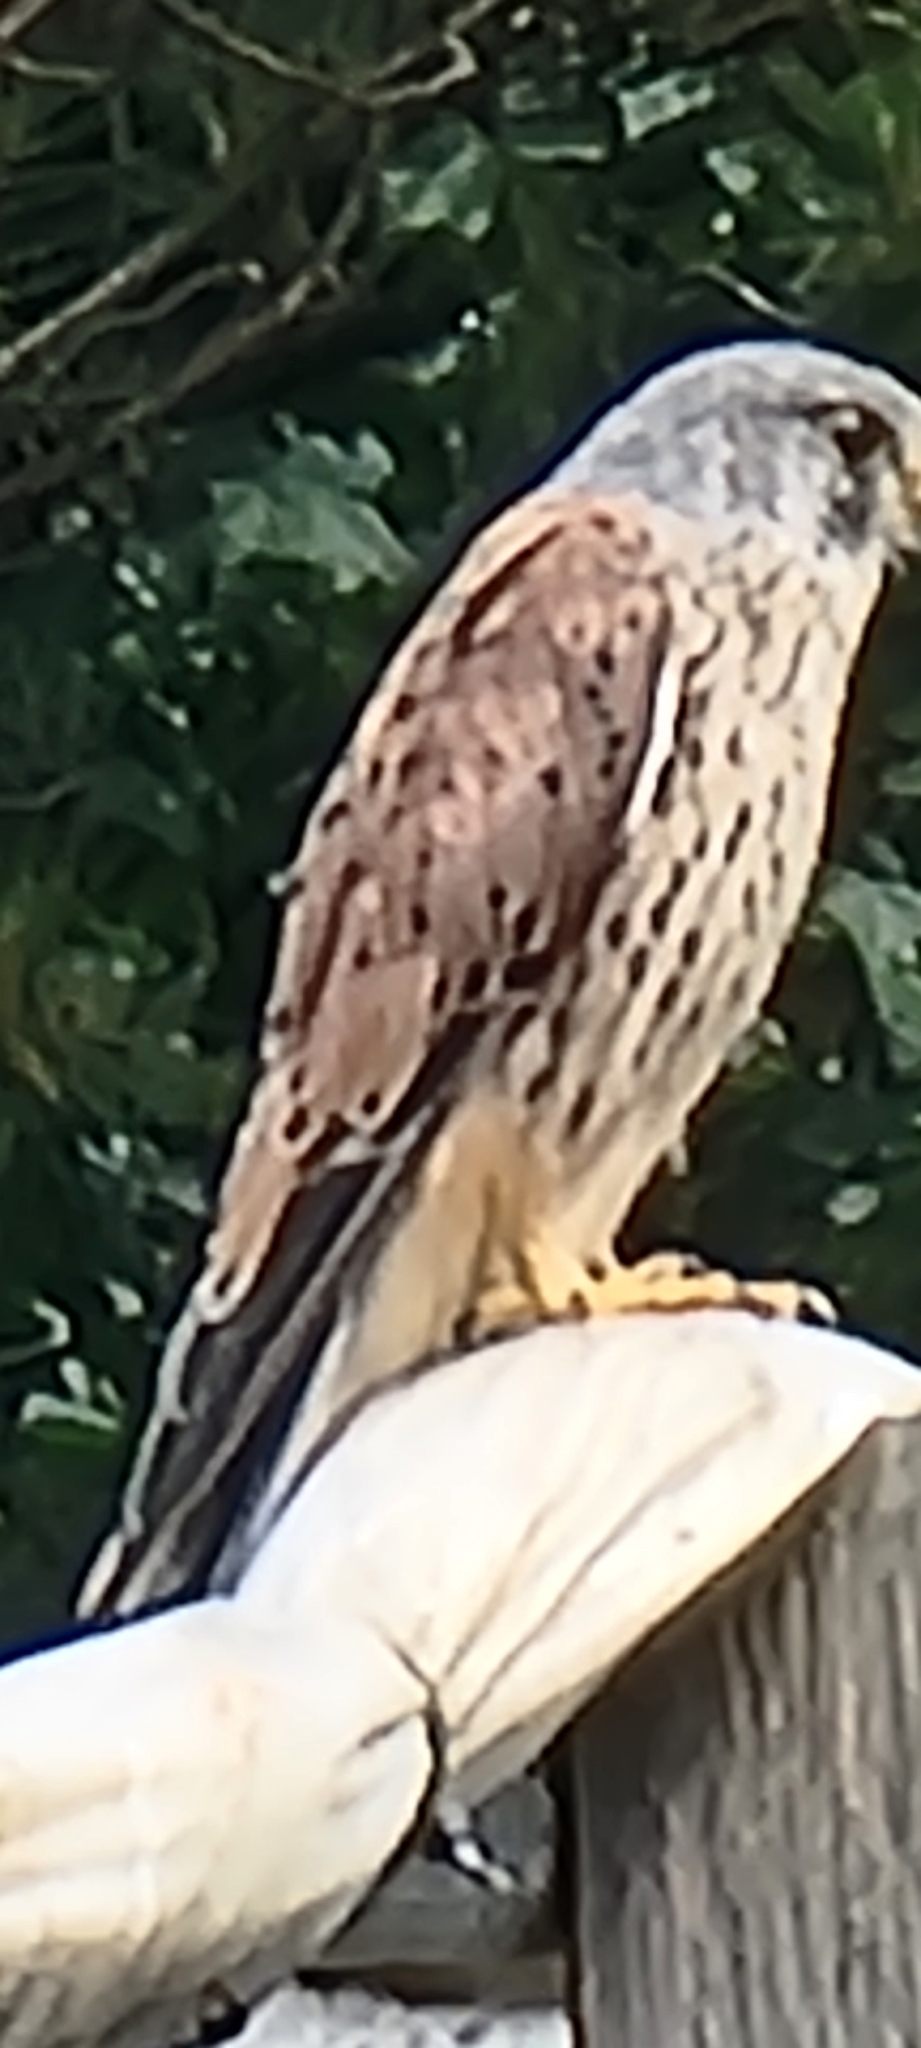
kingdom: Animalia
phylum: Chordata
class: Aves
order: Falconiformes
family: Falconidae
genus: Falco
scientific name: Falco tinnunculus
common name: Common kestrel
